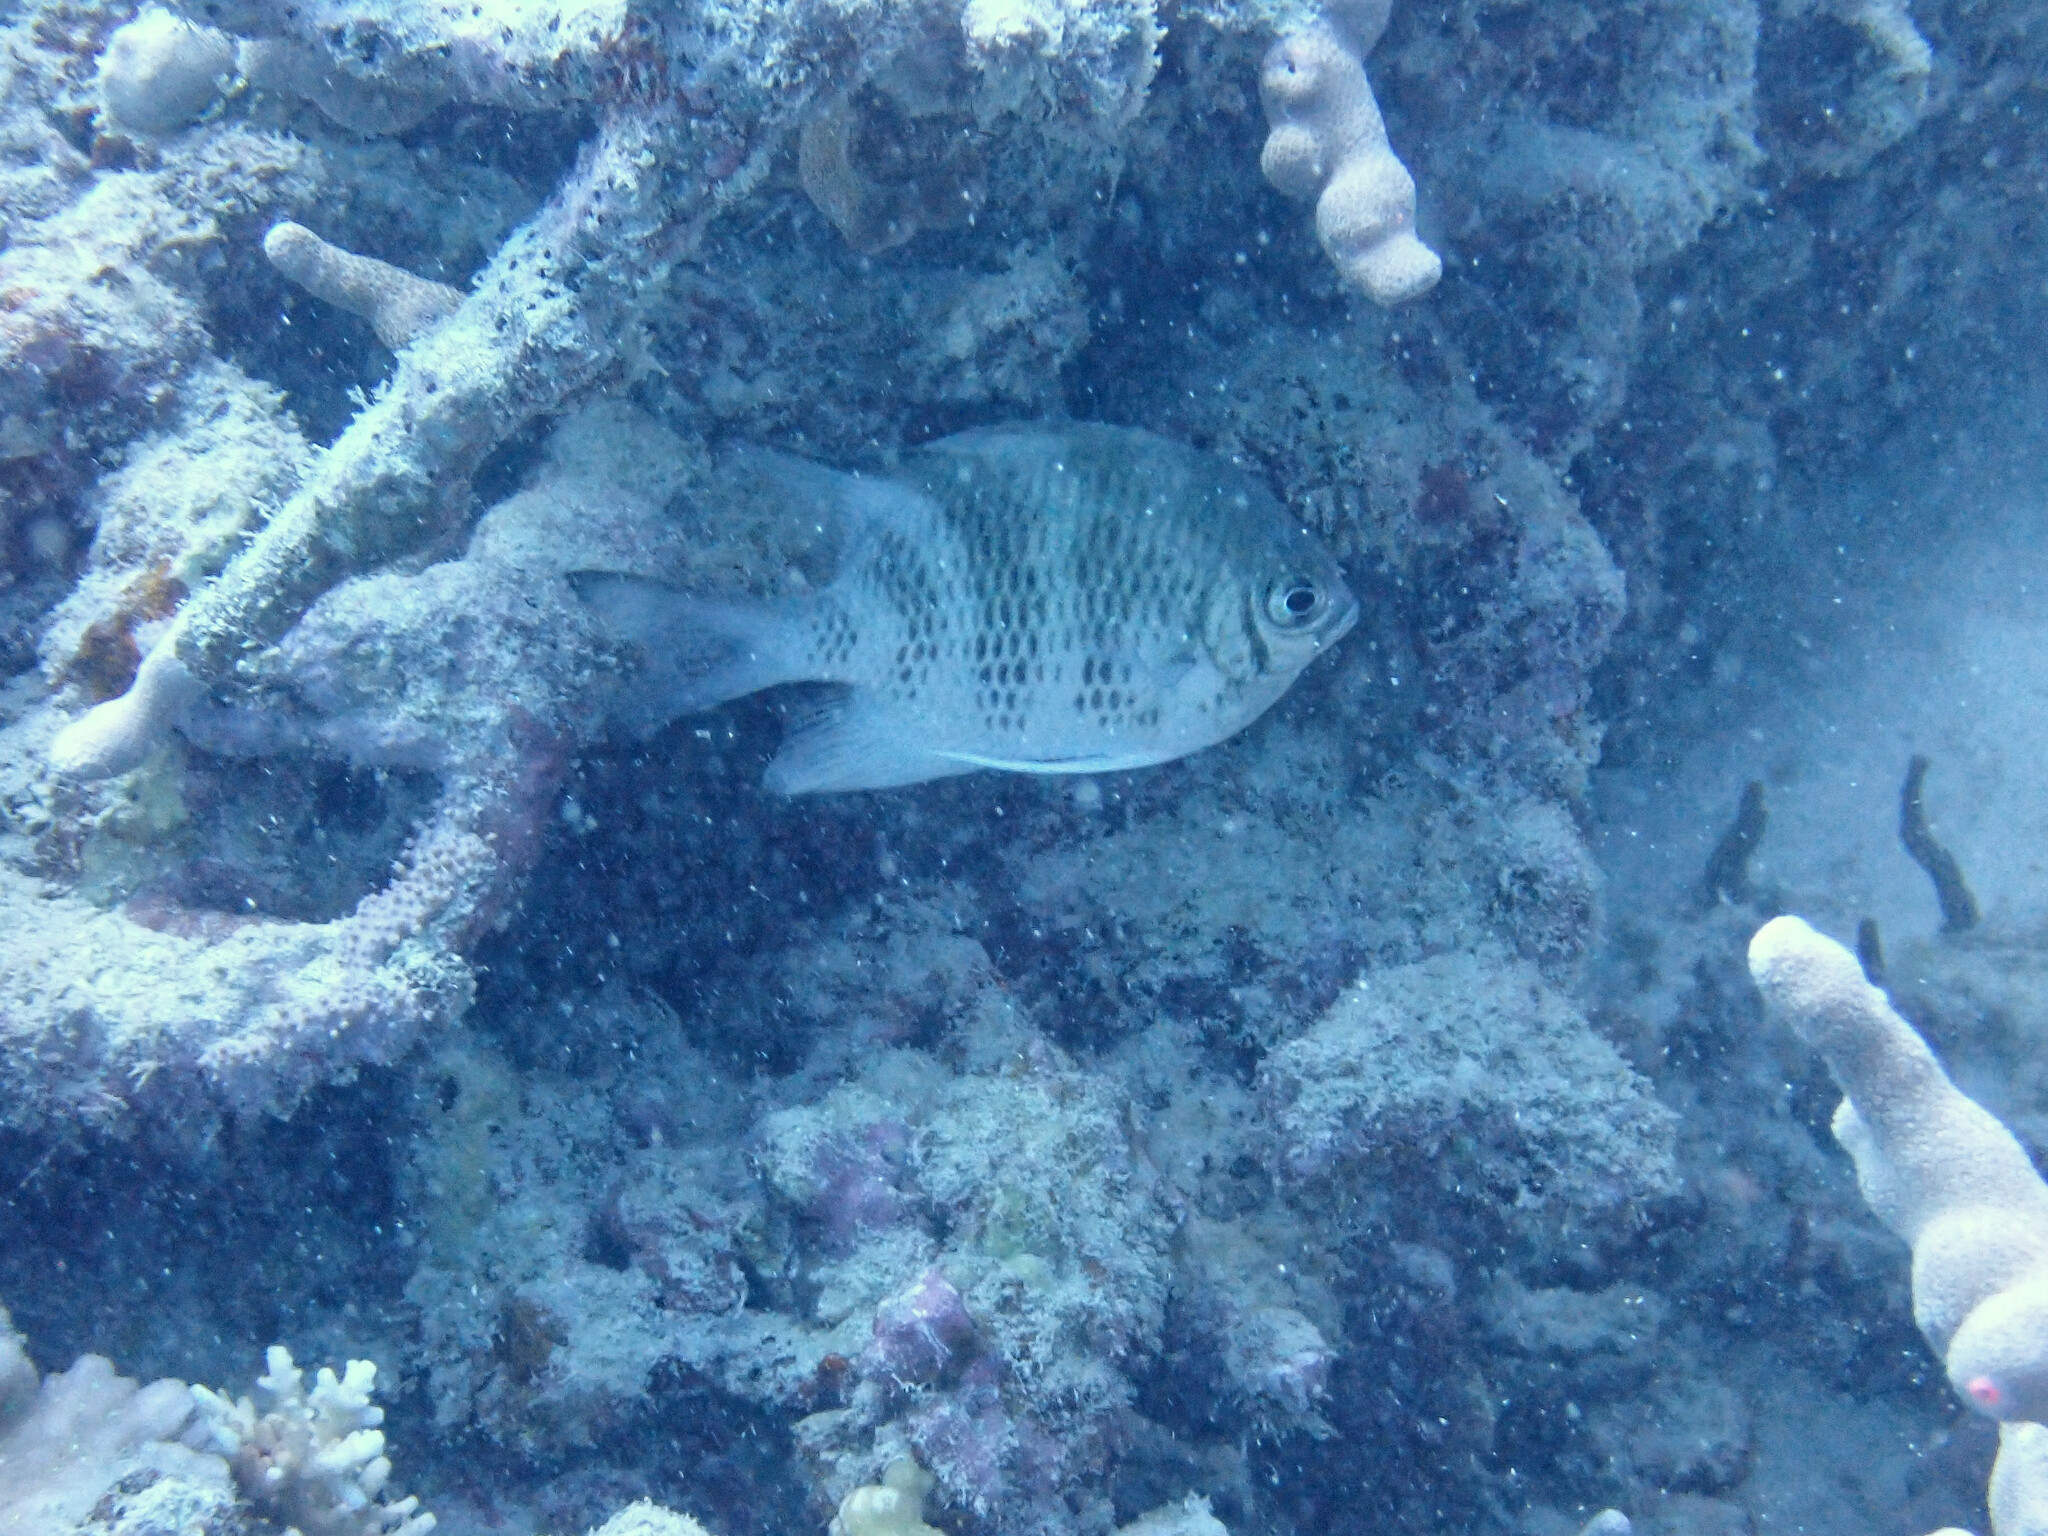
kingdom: Animalia
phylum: Chordata
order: Perciformes
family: Pomacentridae
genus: Amblyglyphidodon
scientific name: Amblyglyphidodon curacao
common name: Staghorn damsel
